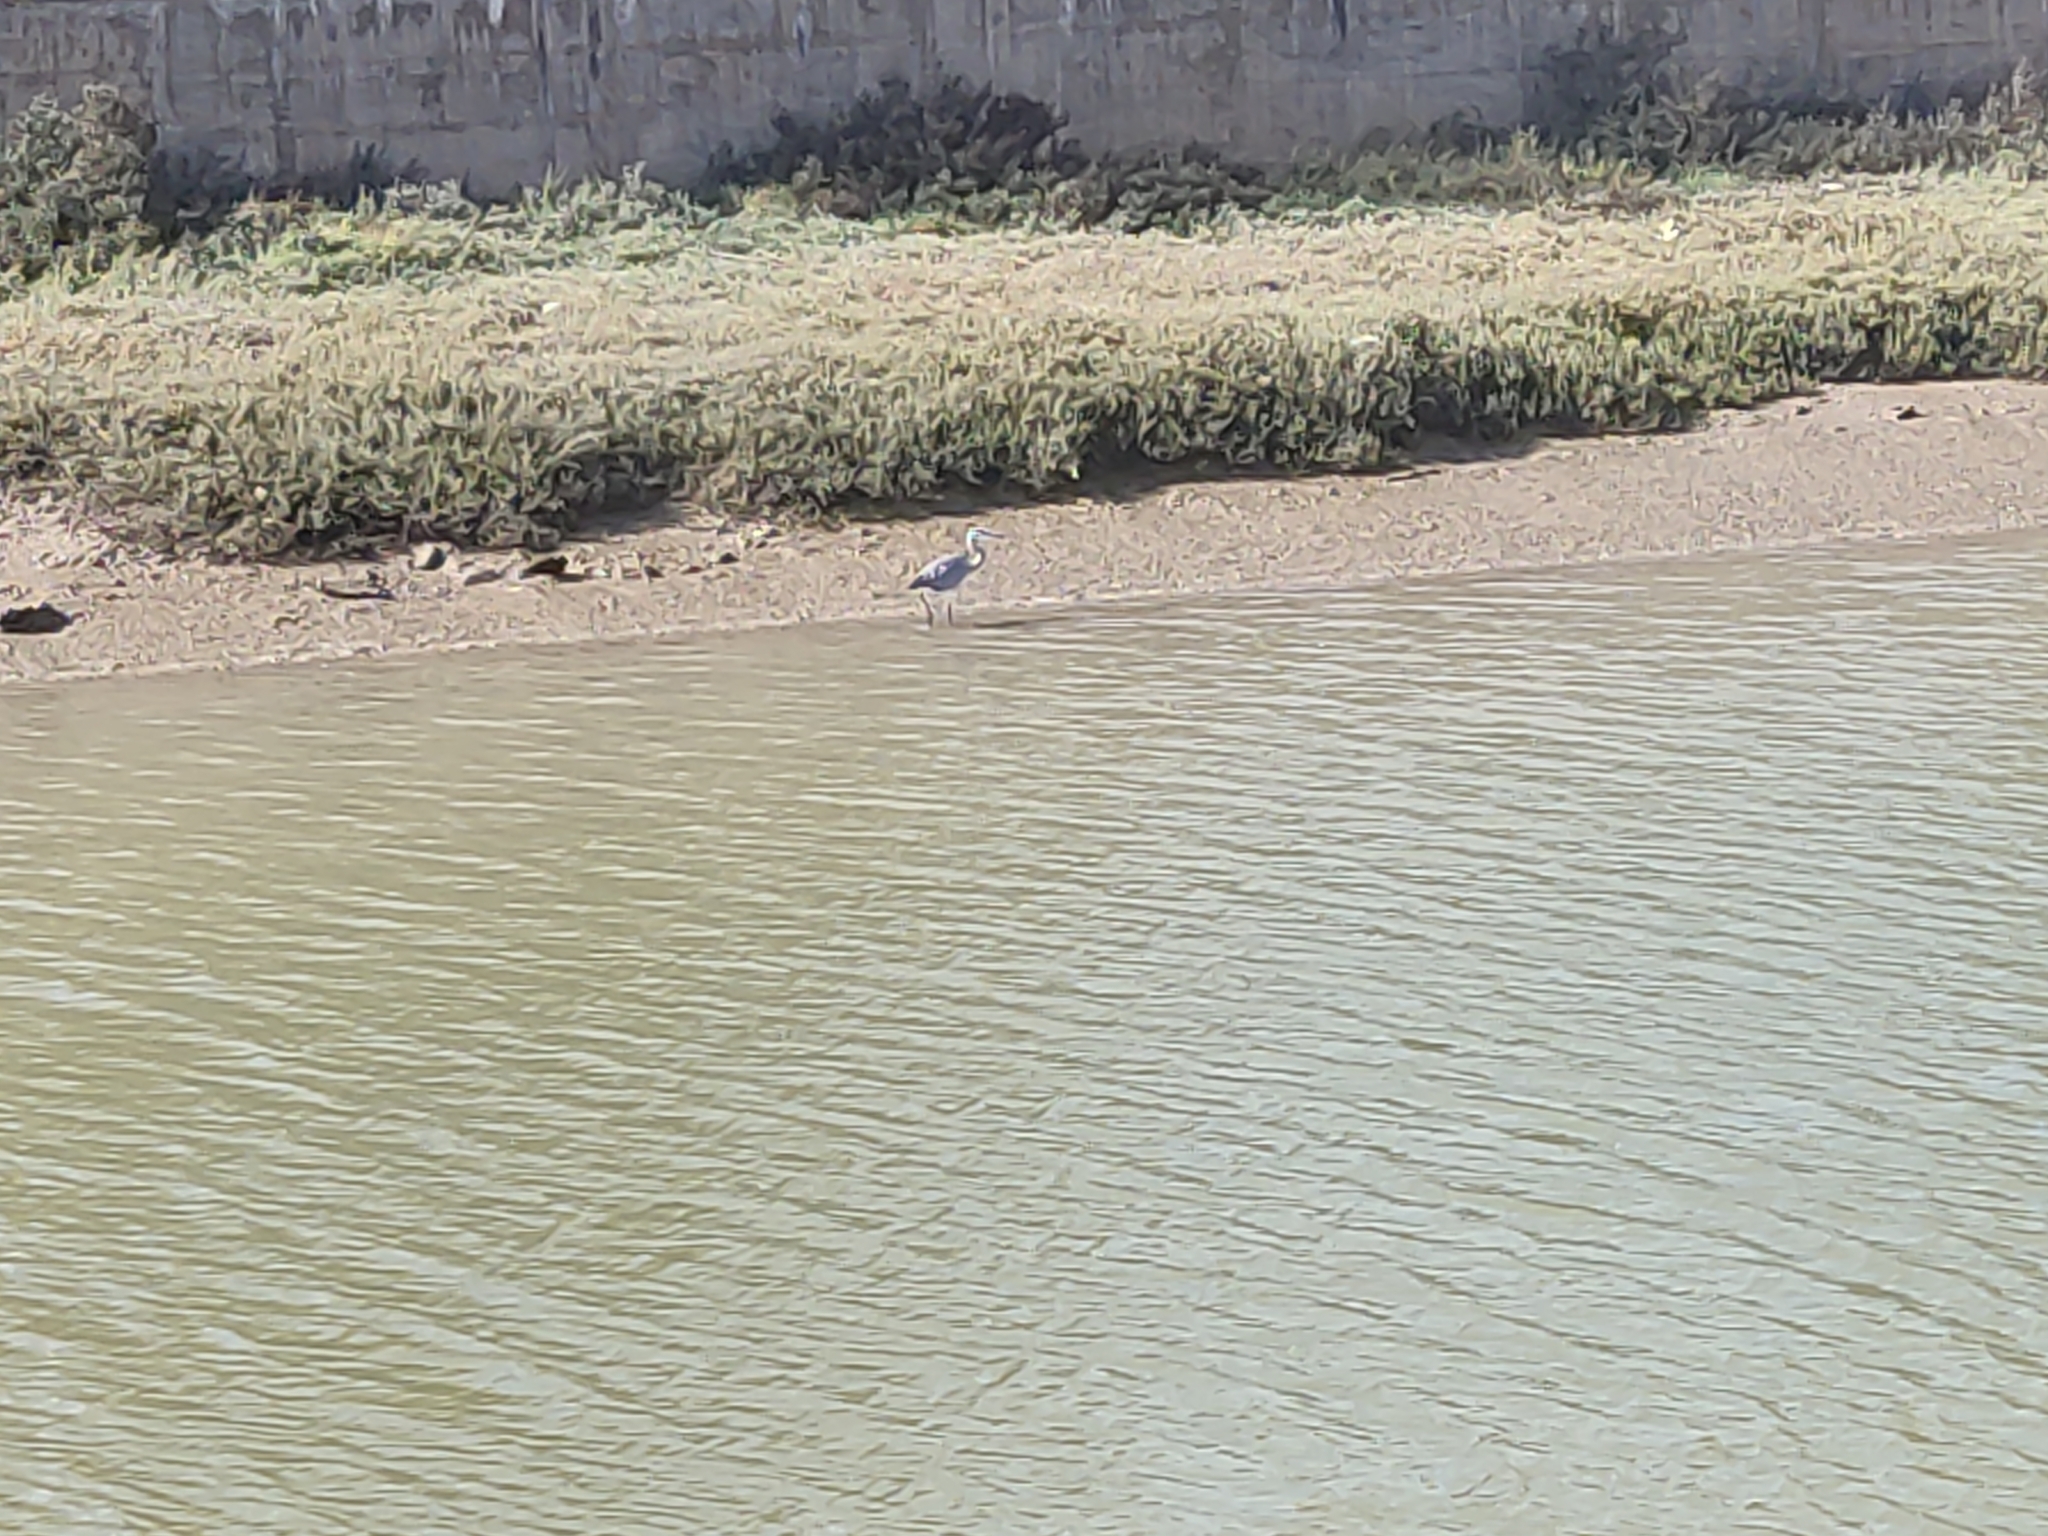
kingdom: Animalia
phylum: Chordata
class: Aves
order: Pelecaniformes
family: Ardeidae
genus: Ardea
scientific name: Ardea cinerea
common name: Grey heron
